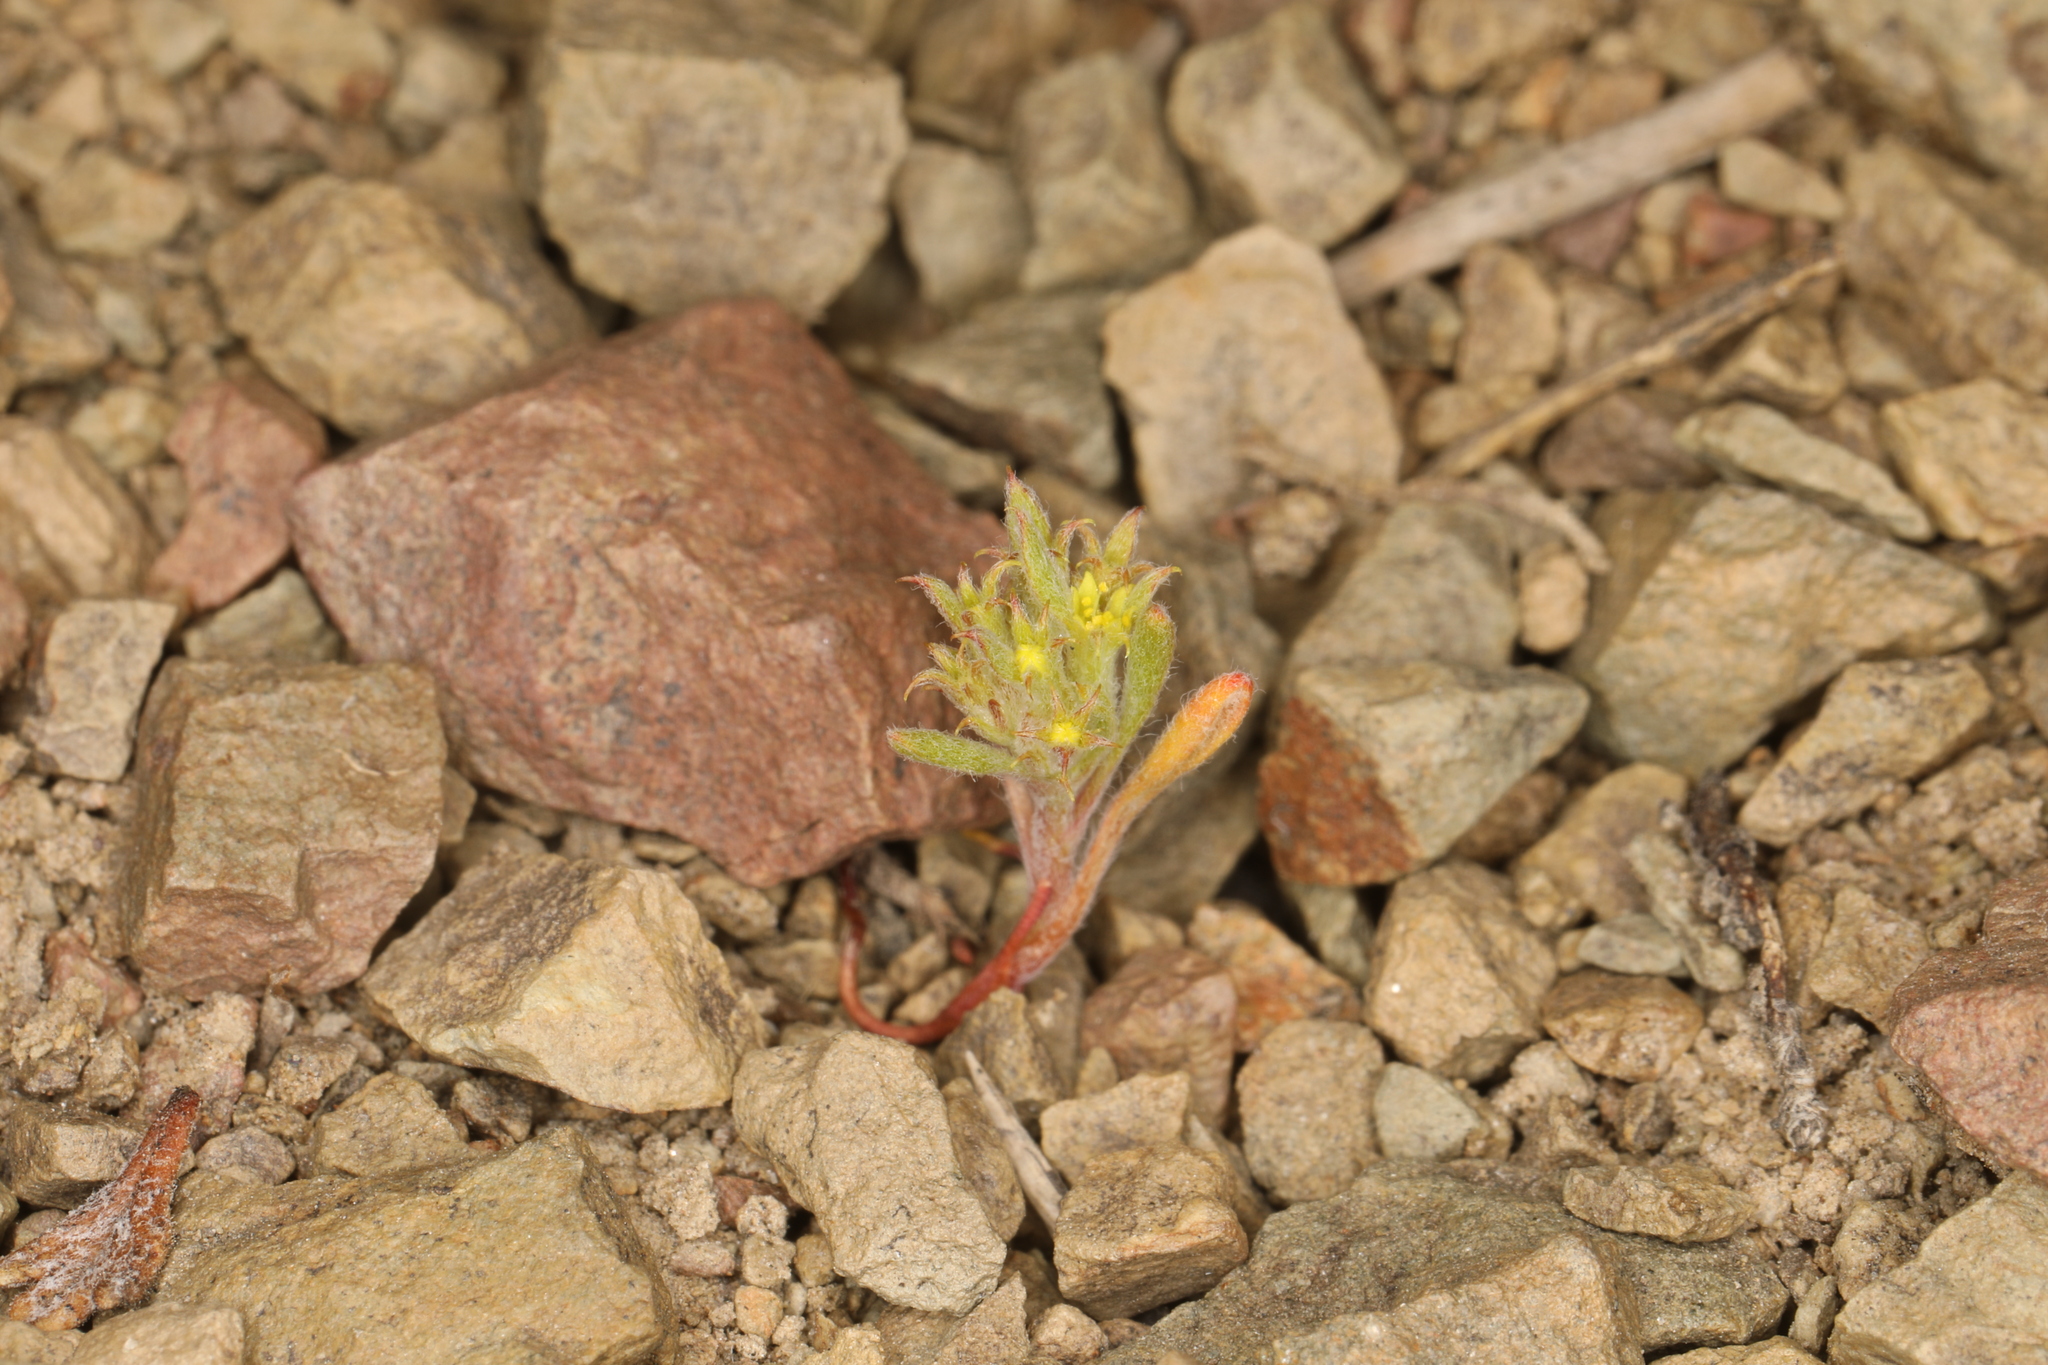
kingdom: Plantae
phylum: Tracheophyta
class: Magnoliopsida
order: Caryophyllales
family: Polygonaceae
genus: Chorizanthe
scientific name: Chorizanthe watsonii
